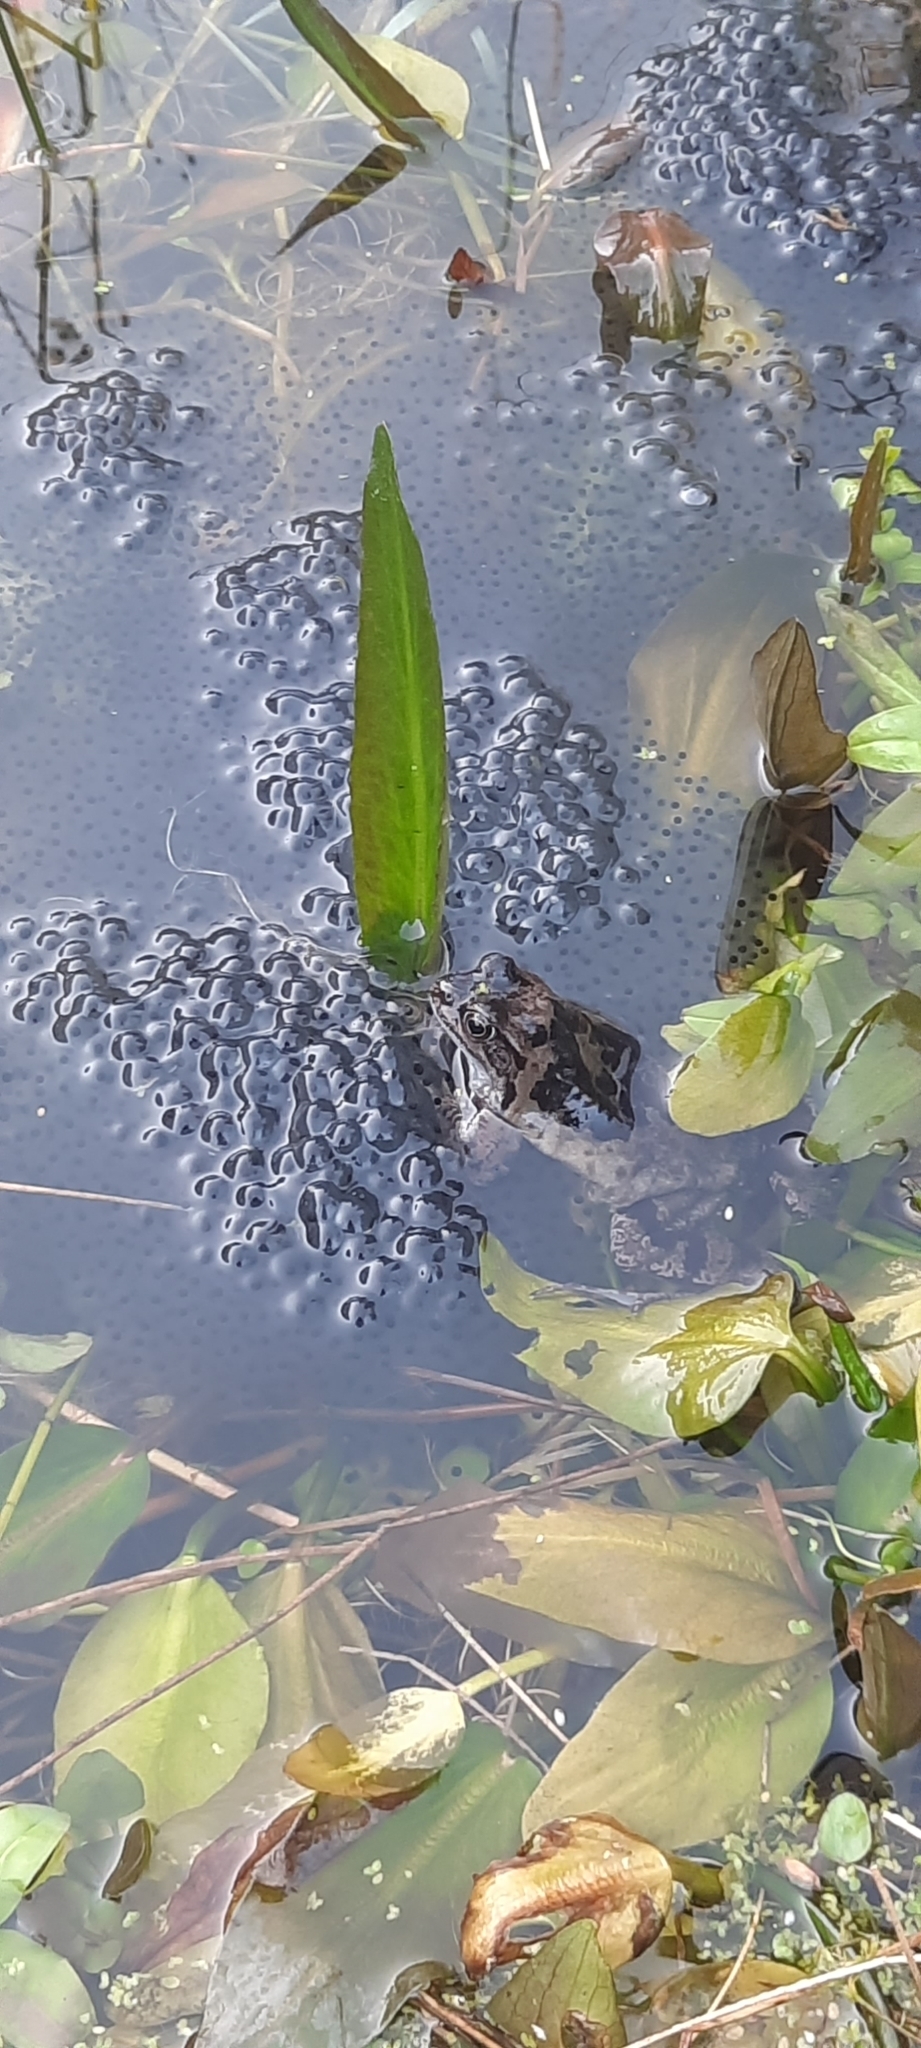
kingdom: Animalia
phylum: Chordata
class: Amphibia
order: Anura
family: Ranidae
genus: Rana
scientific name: Rana temporaria
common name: Common frog
